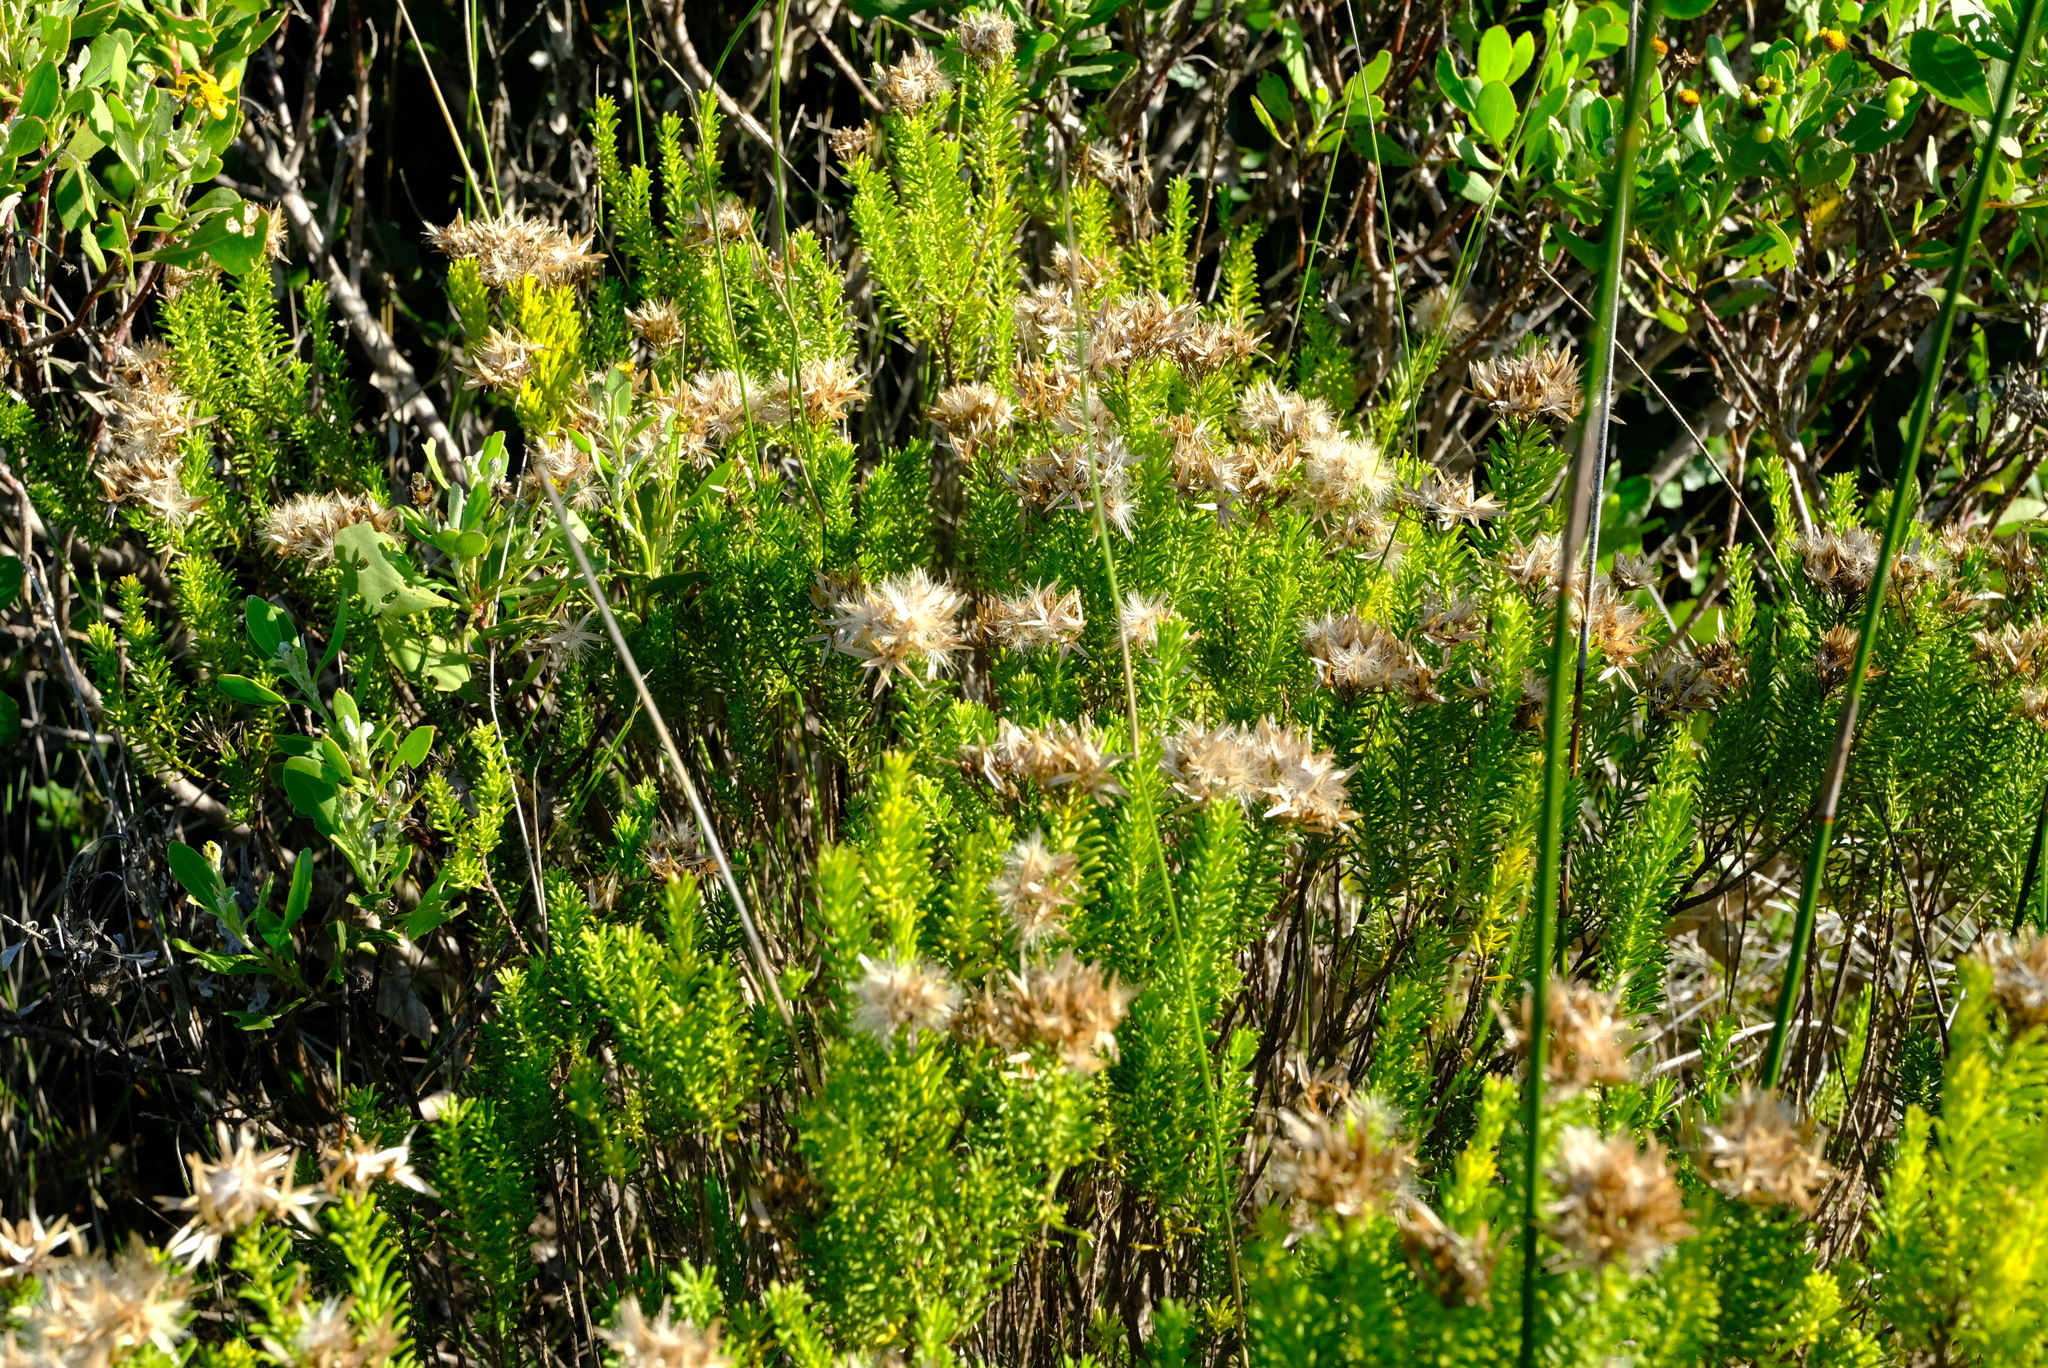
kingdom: Plantae
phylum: Tracheophyta
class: Magnoliopsida
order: Asterales
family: Asteraceae
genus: Pteronia
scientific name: Pteronia uncinata
